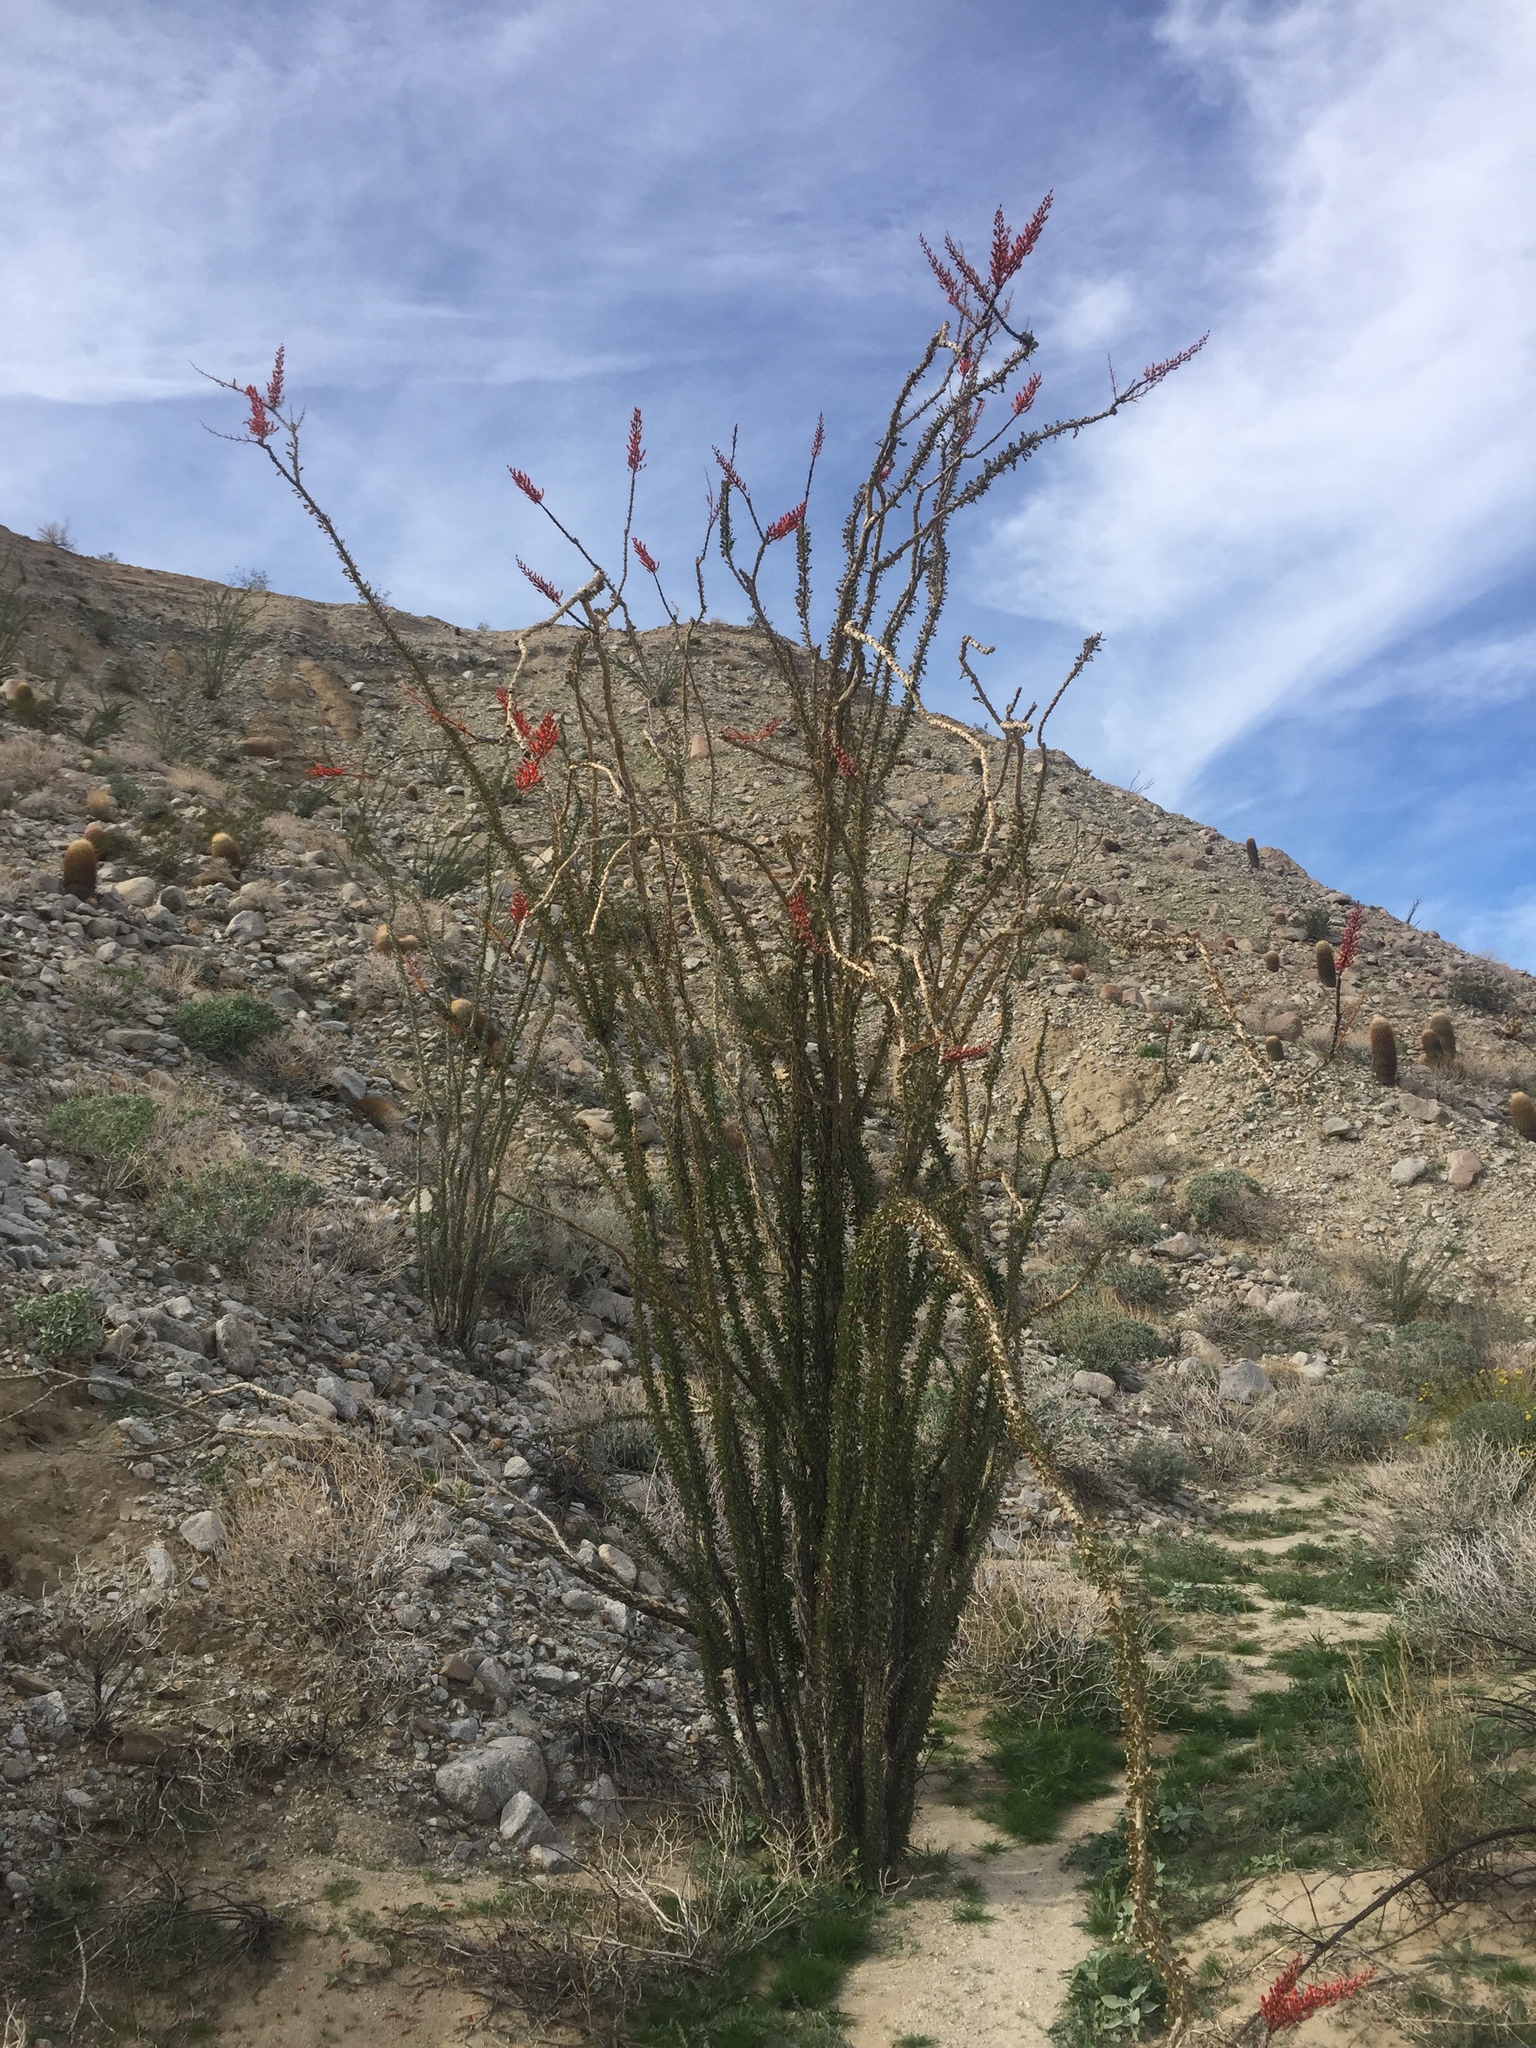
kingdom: Plantae
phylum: Tracheophyta
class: Magnoliopsida
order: Ericales
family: Fouquieriaceae
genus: Fouquieria
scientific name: Fouquieria splendens
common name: Vine-cactus
